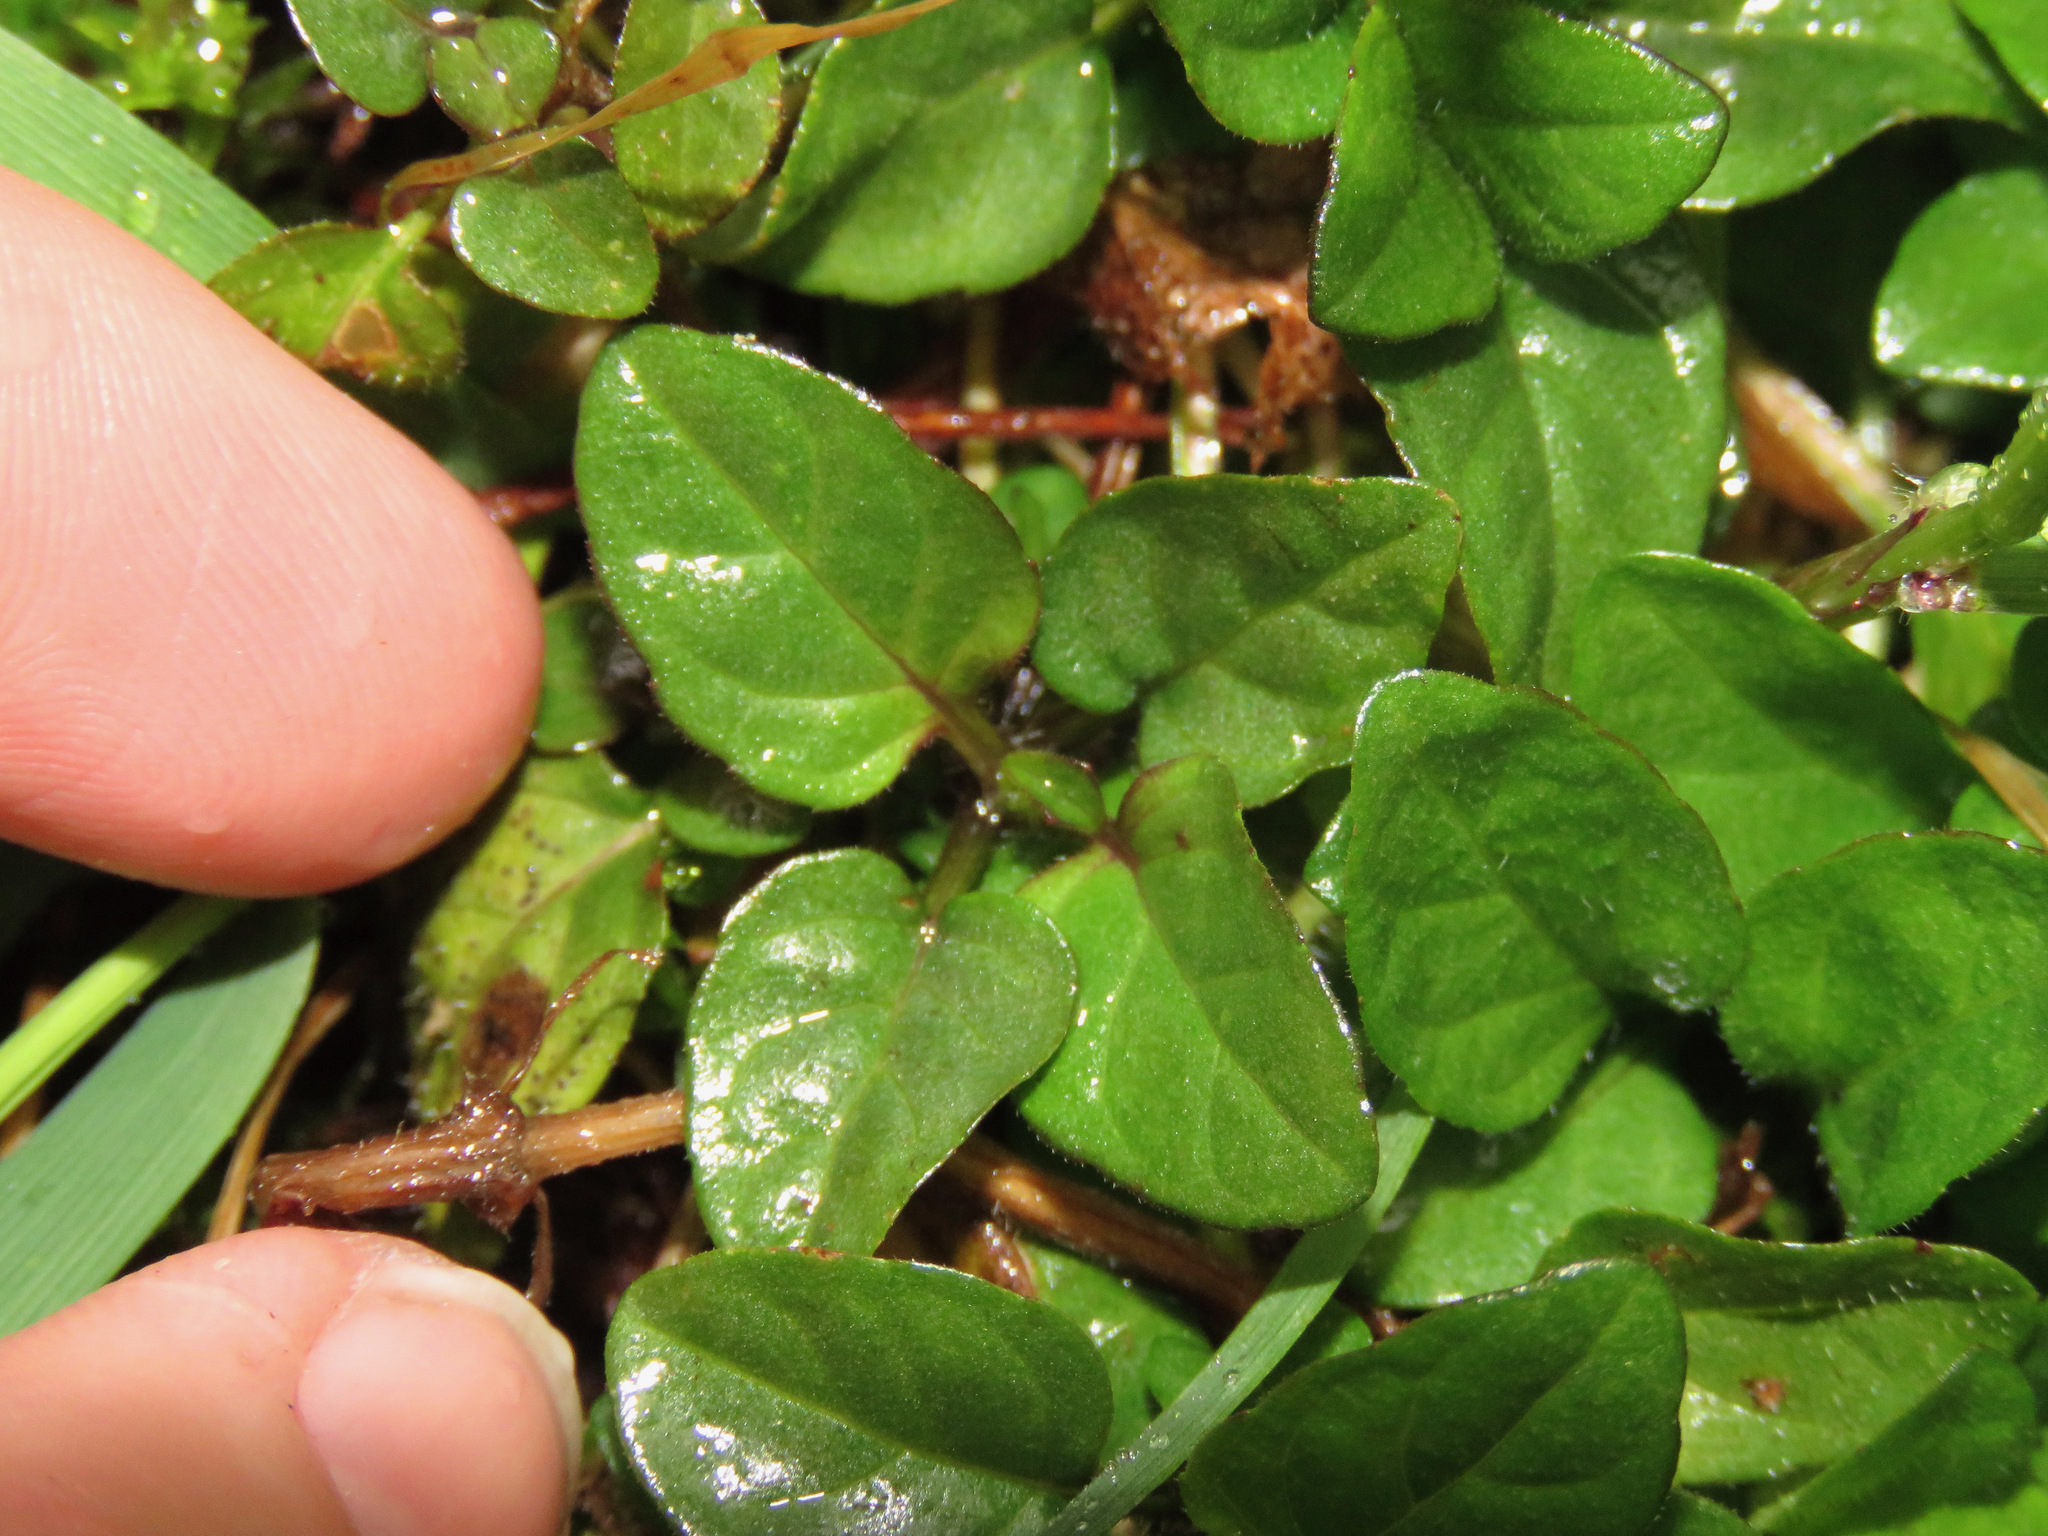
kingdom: Plantae
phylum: Tracheophyta
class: Magnoliopsida
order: Lamiales
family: Lamiaceae
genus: Prunella
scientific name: Prunella vulgaris
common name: Heal-all
